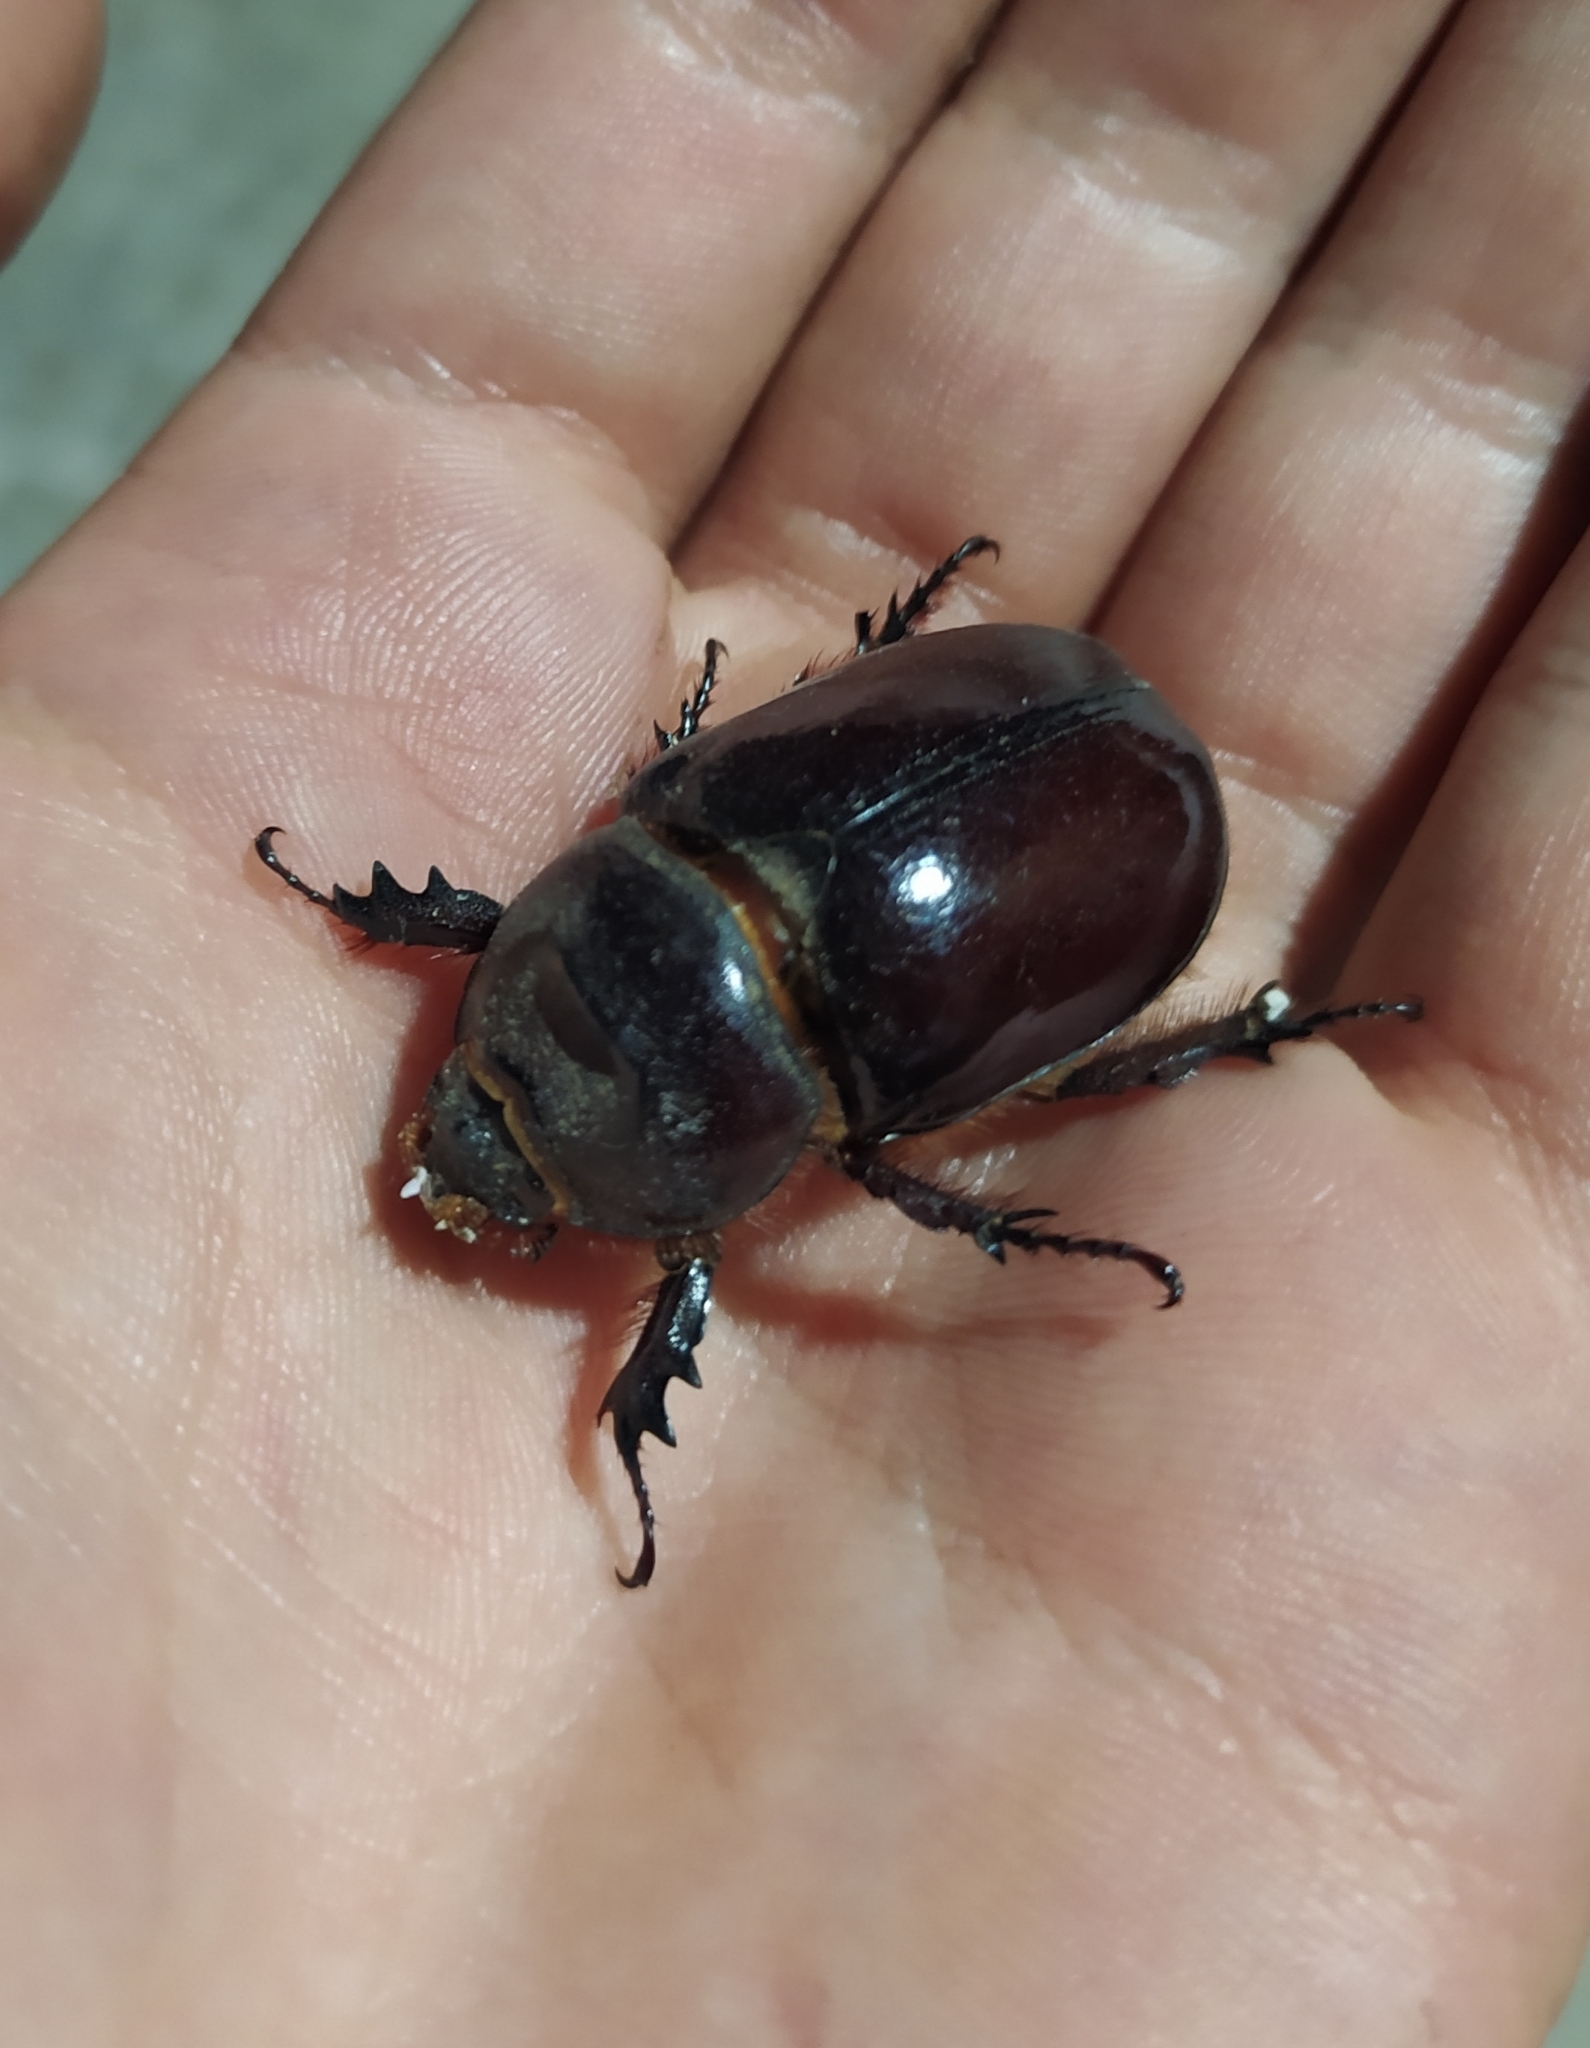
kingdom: Animalia
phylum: Arthropoda
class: Insecta
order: Coleoptera
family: Scarabaeidae
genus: Oryctes
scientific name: Oryctes nasicornis
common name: European rhinoceros beetle
